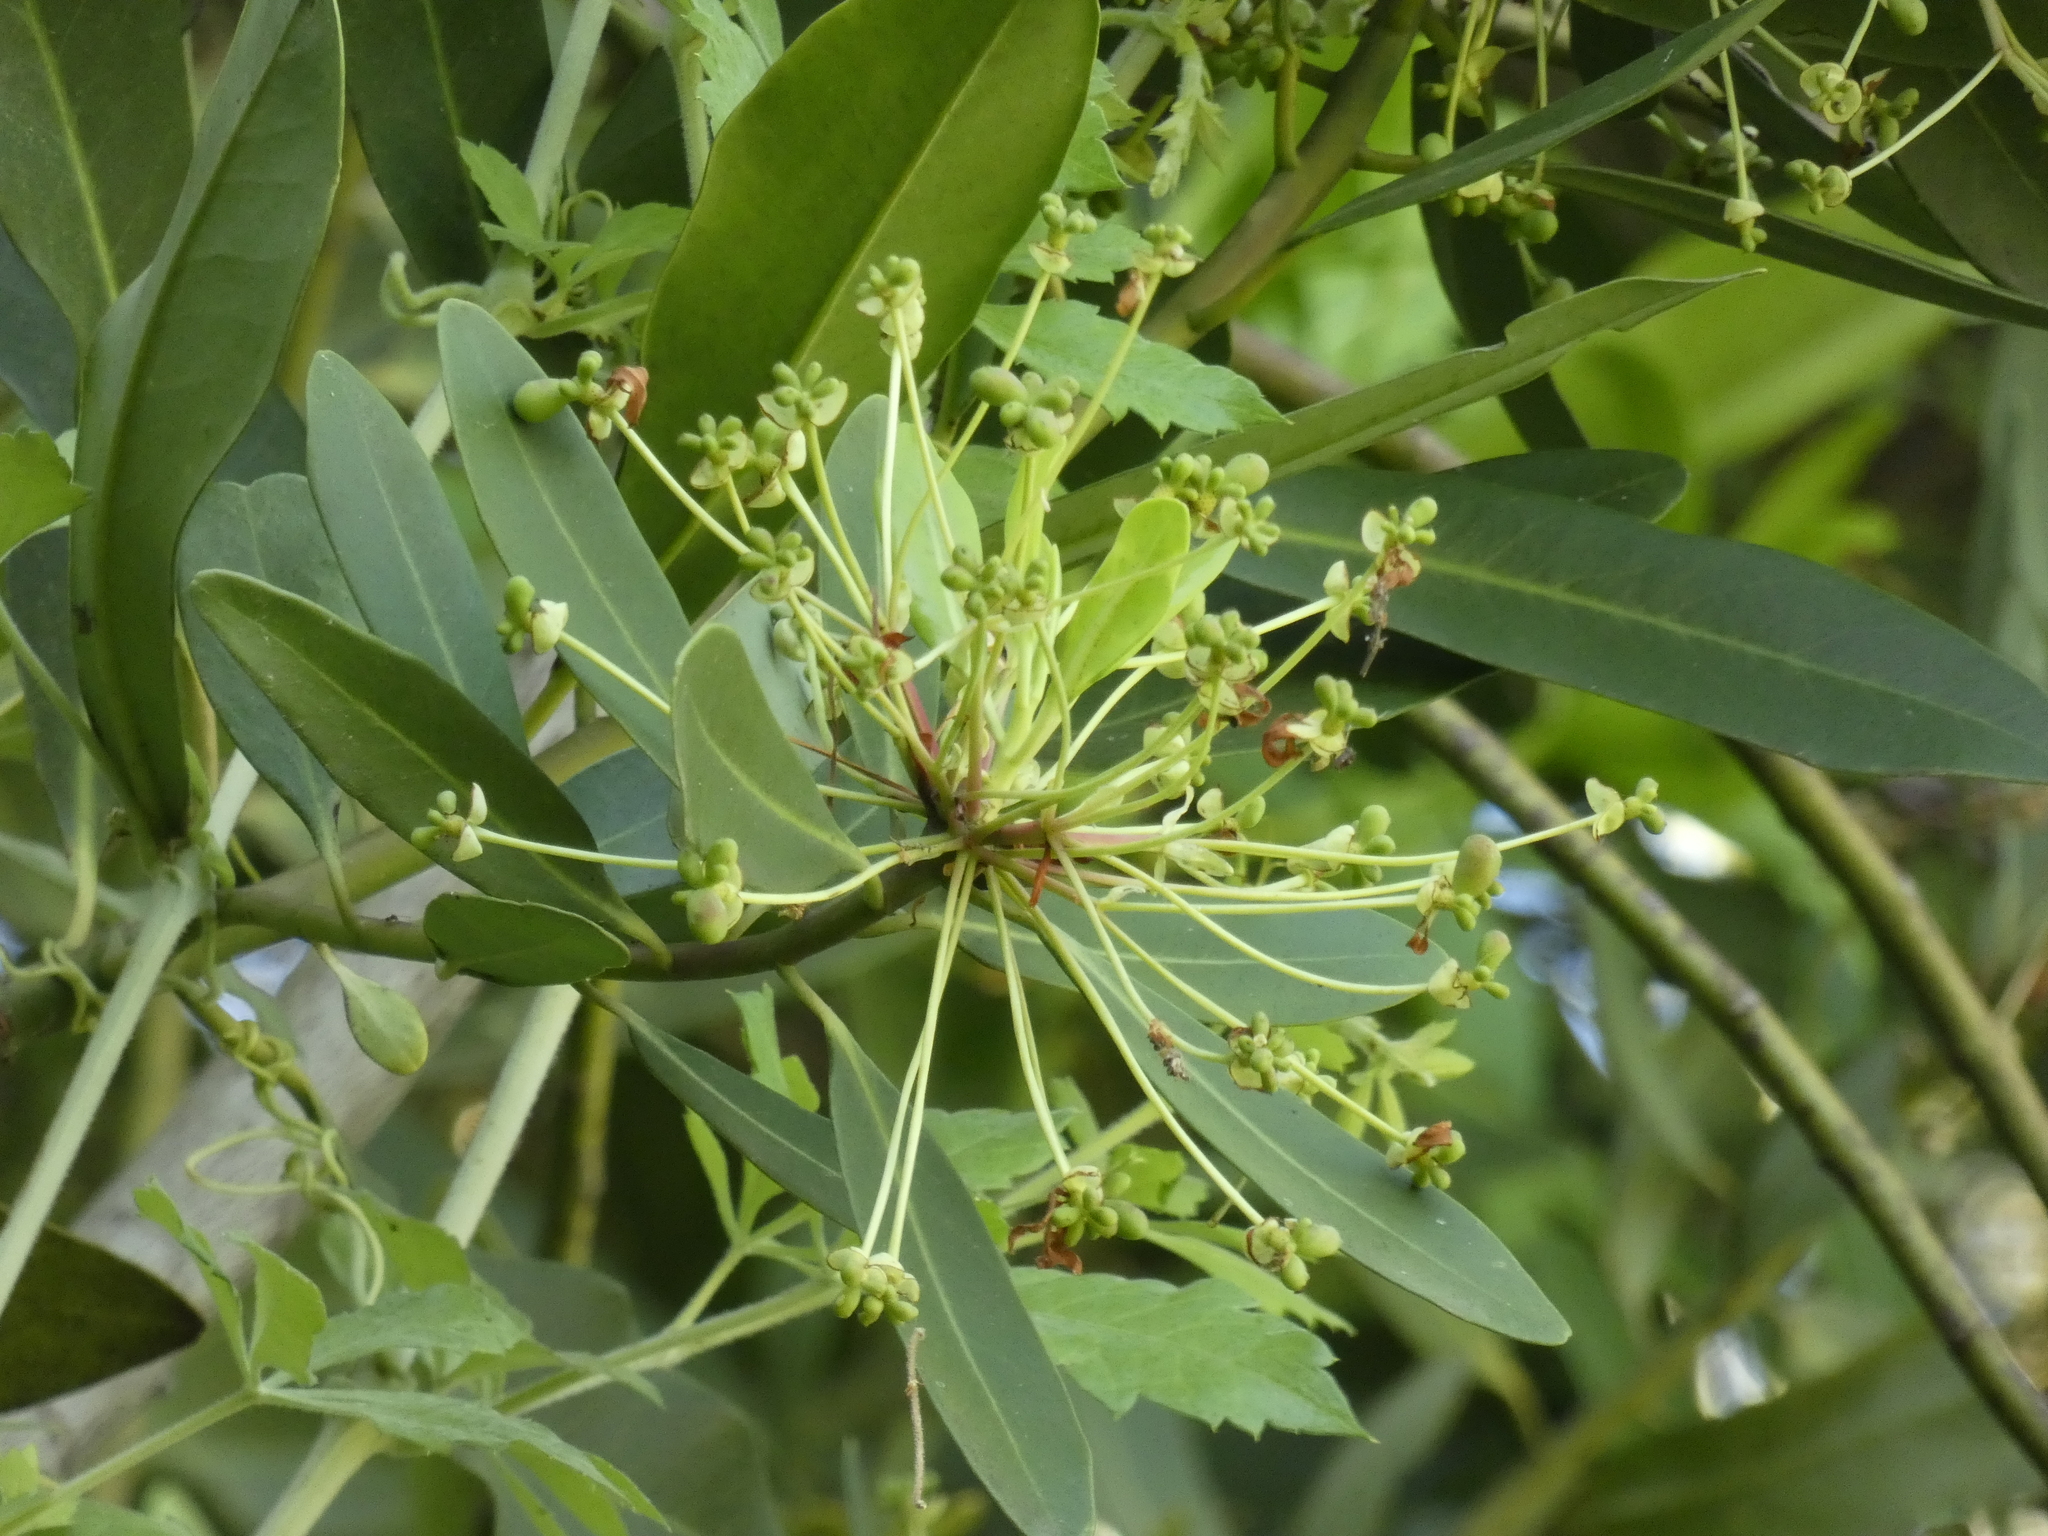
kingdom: Plantae
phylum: Tracheophyta
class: Magnoliopsida
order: Canellales
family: Winteraceae
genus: Drimys
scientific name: Drimys winteri
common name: Winter's-bark
